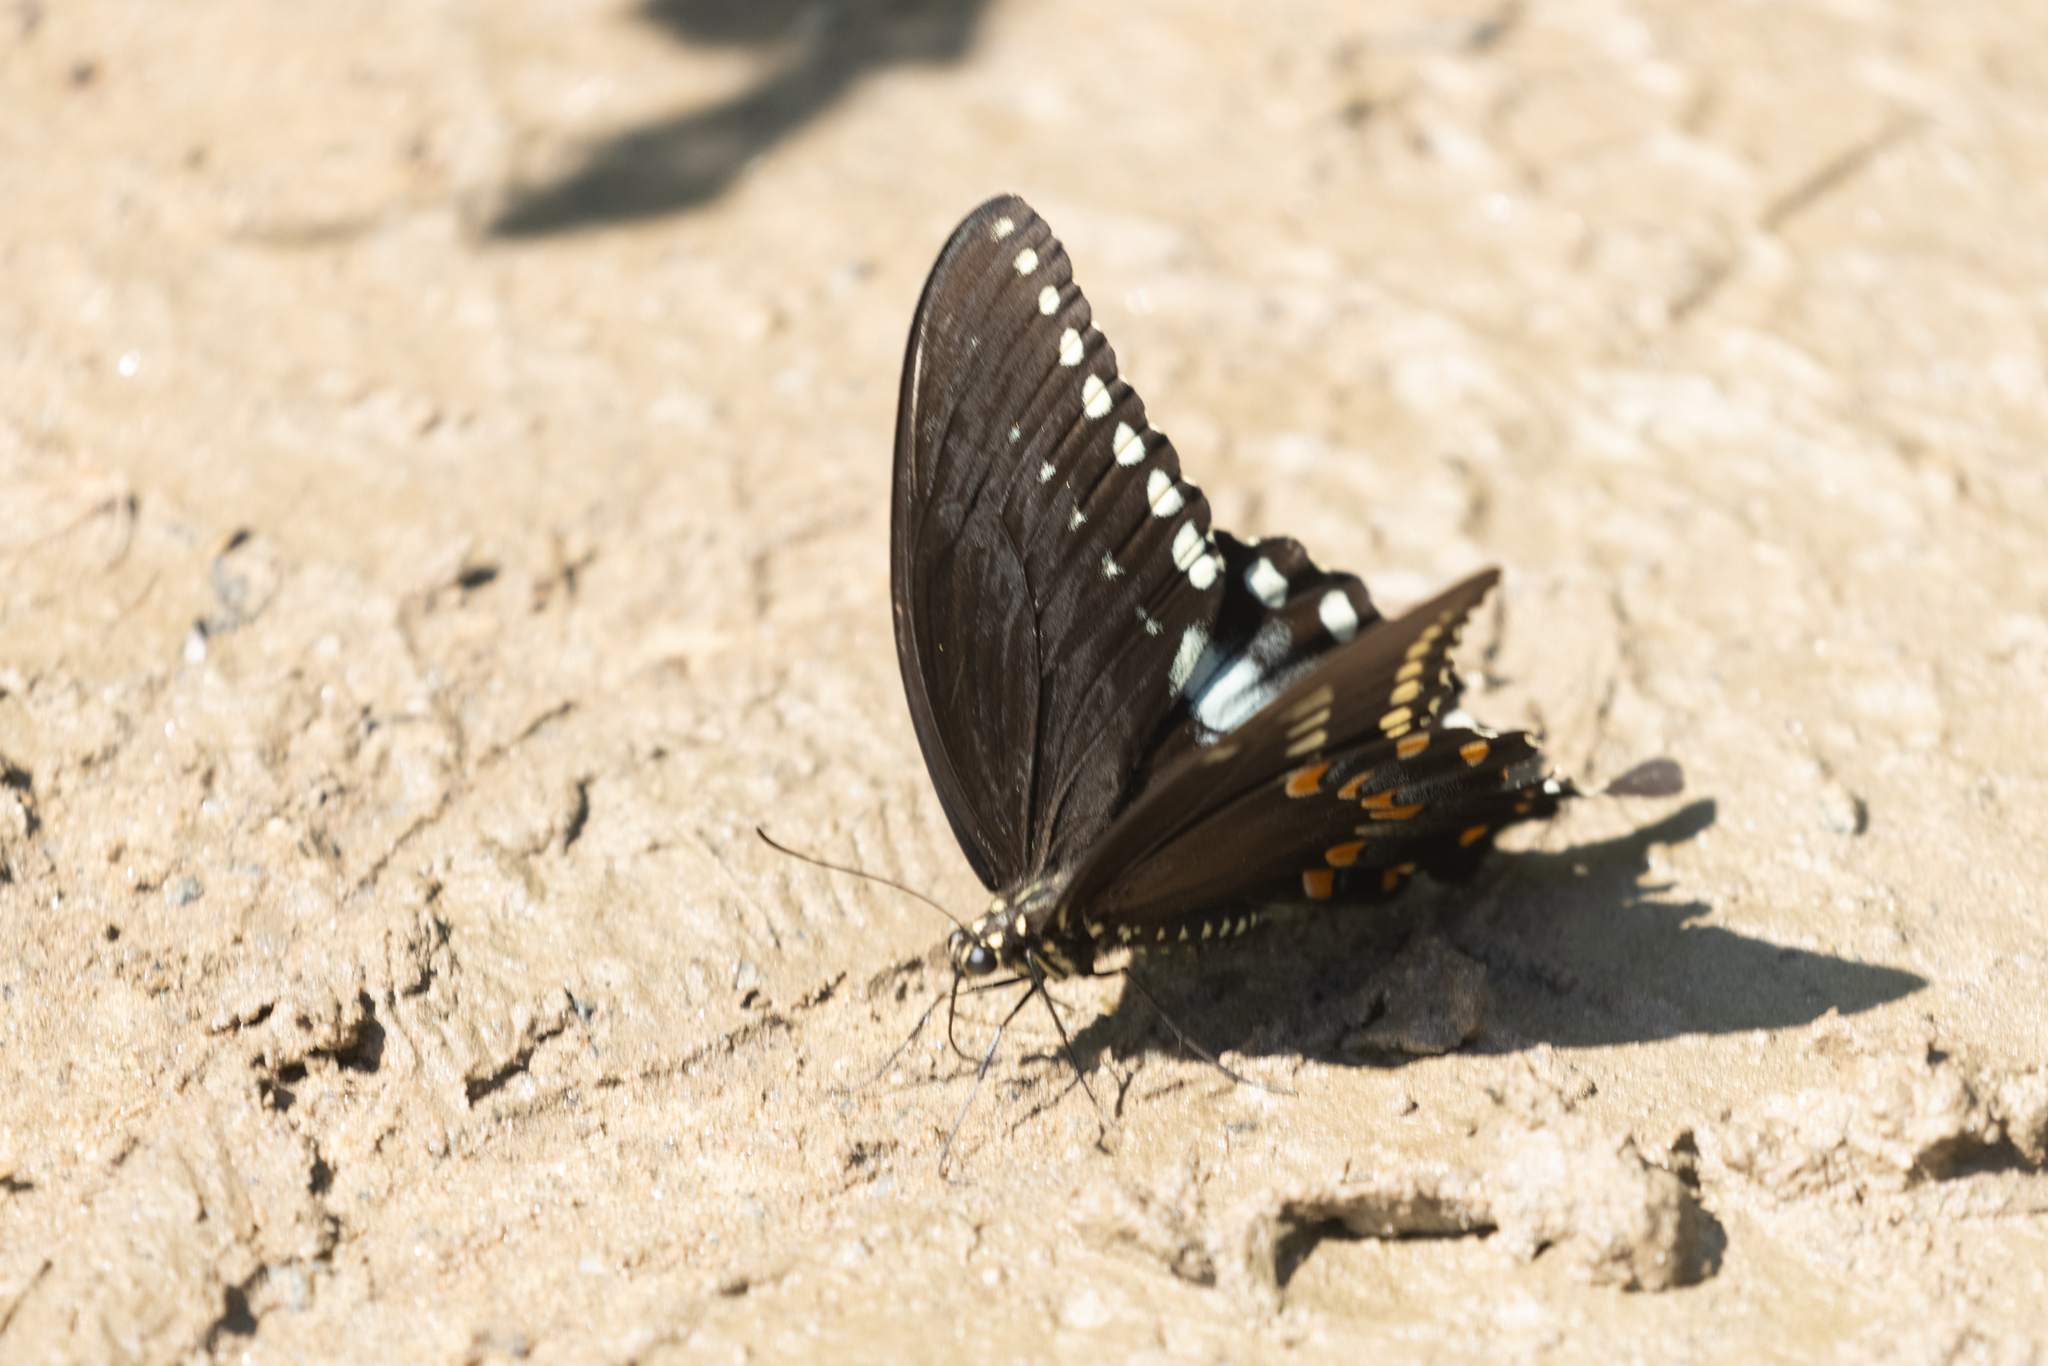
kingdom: Animalia
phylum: Arthropoda
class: Insecta
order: Lepidoptera
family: Papilionidae
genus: Papilio
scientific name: Papilio troilus
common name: Spicebush swallowtail
